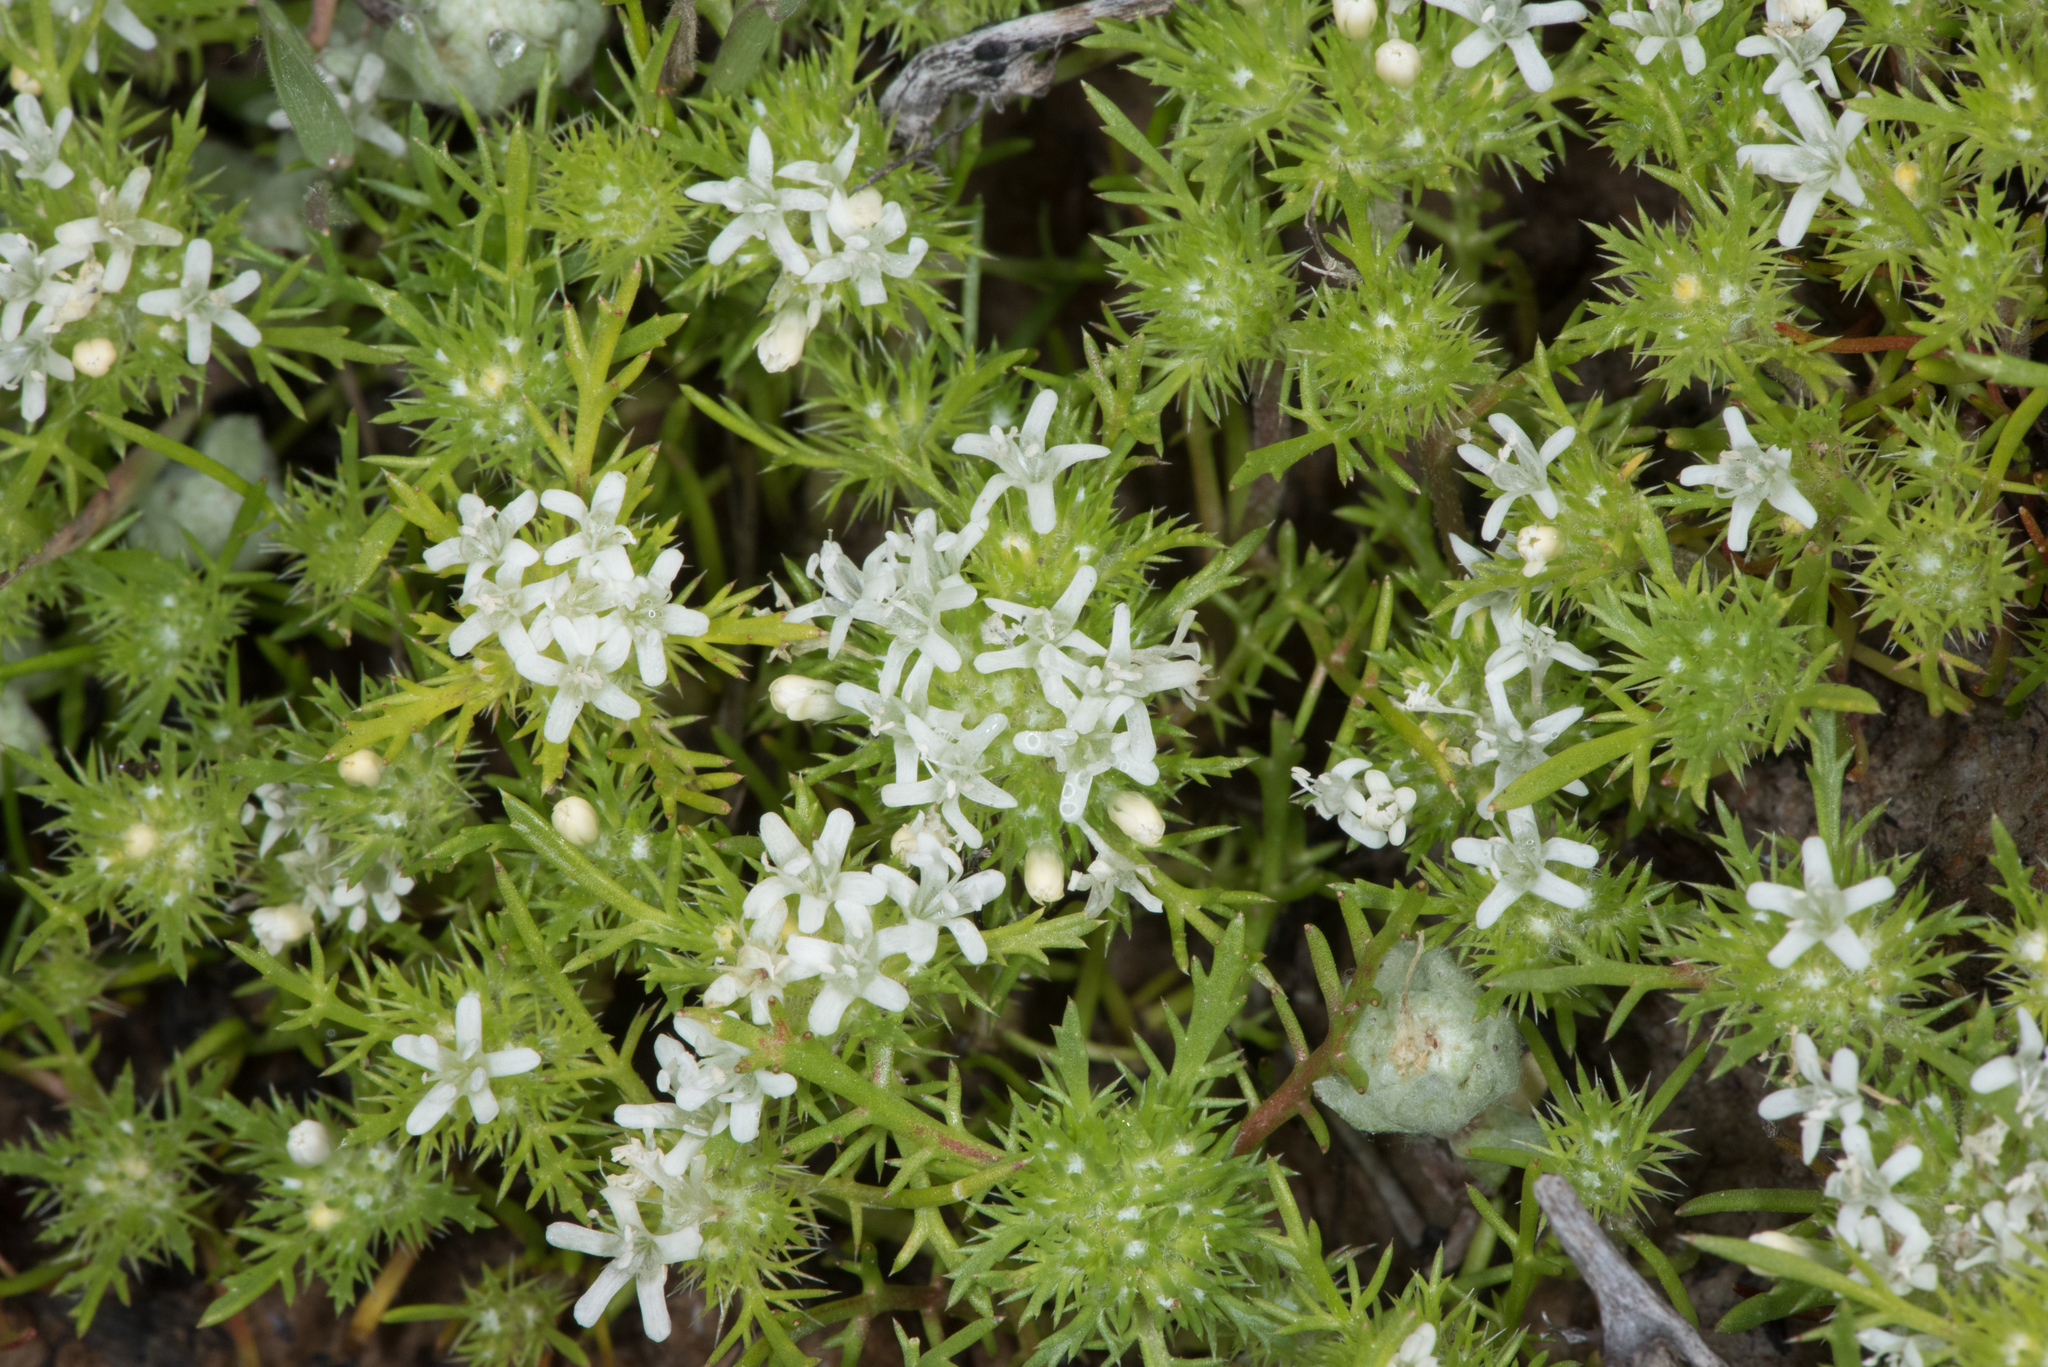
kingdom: Plantae
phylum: Tracheophyta
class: Magnoliopsida
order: Ericales
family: Polemoniaceae
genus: Navarretia
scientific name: Navarretia leucocephala
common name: White-flowered navarretia
